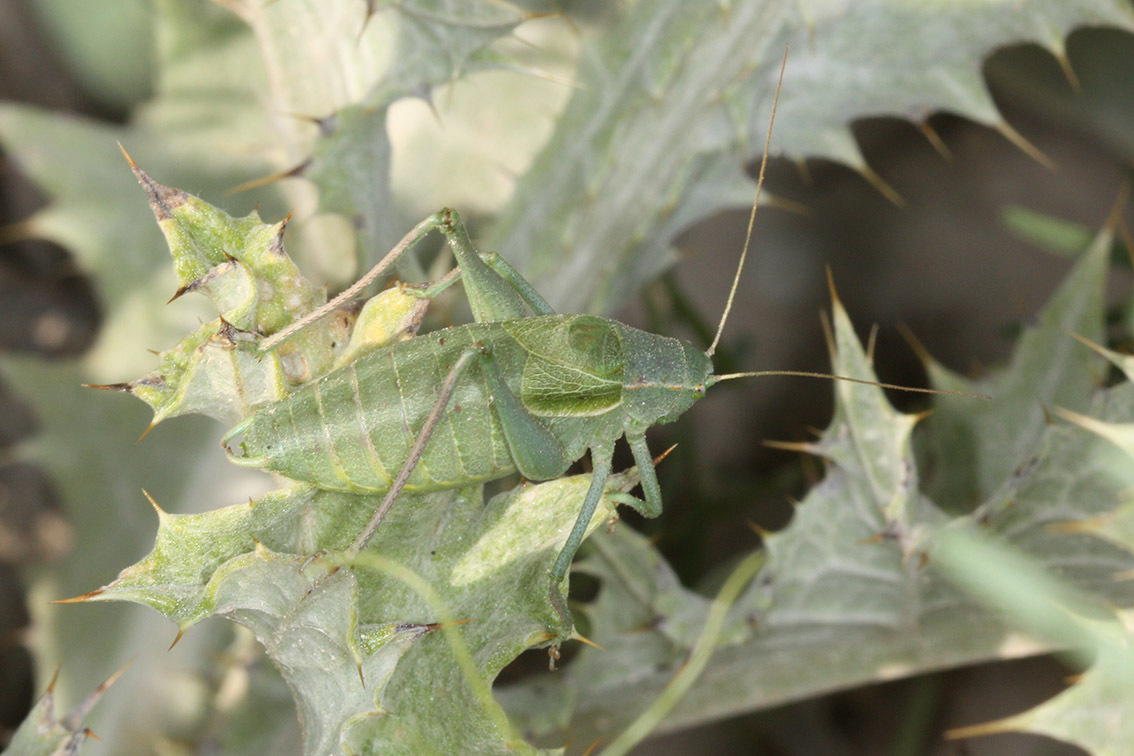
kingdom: Animalia
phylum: Arthropoda
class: Insecta
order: Orthoptera
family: Tettigoniidae
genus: Isophya
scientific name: Isophya straubei
